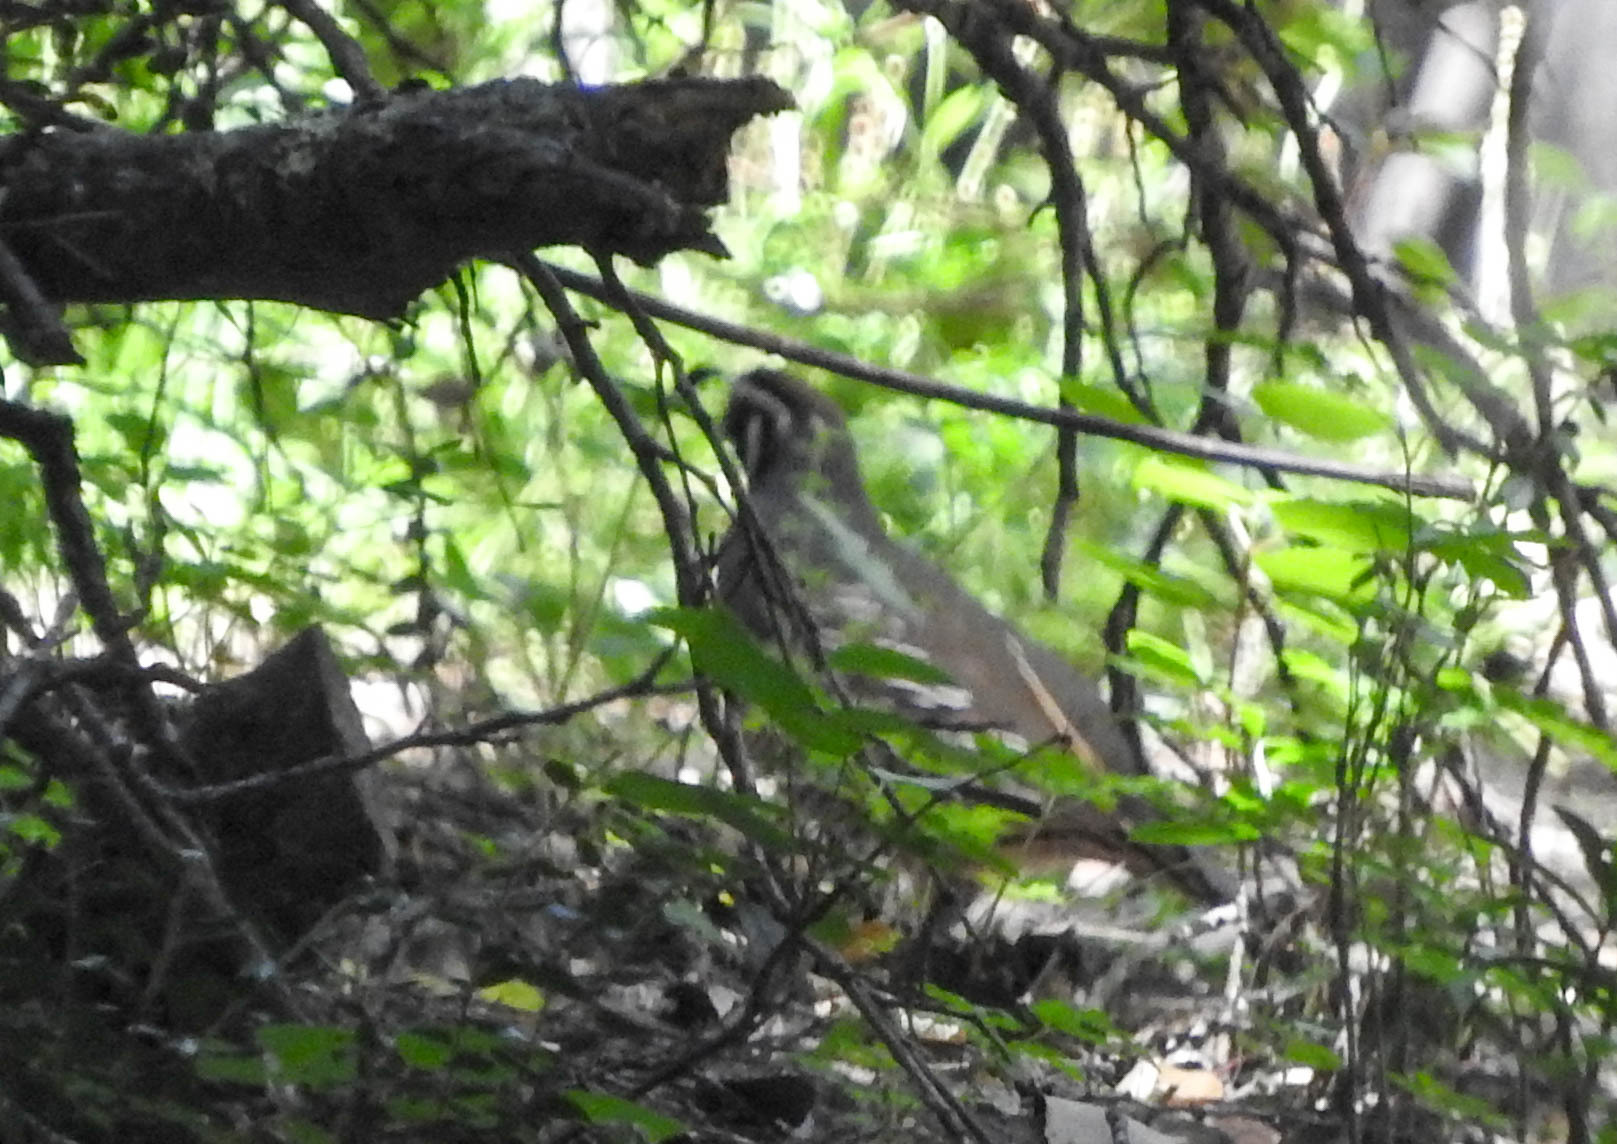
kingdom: Animalia
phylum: Chordata
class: Aves
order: Galliformes
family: Odontophoridae
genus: Callipepla
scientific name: Callipepla californica
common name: California quail
